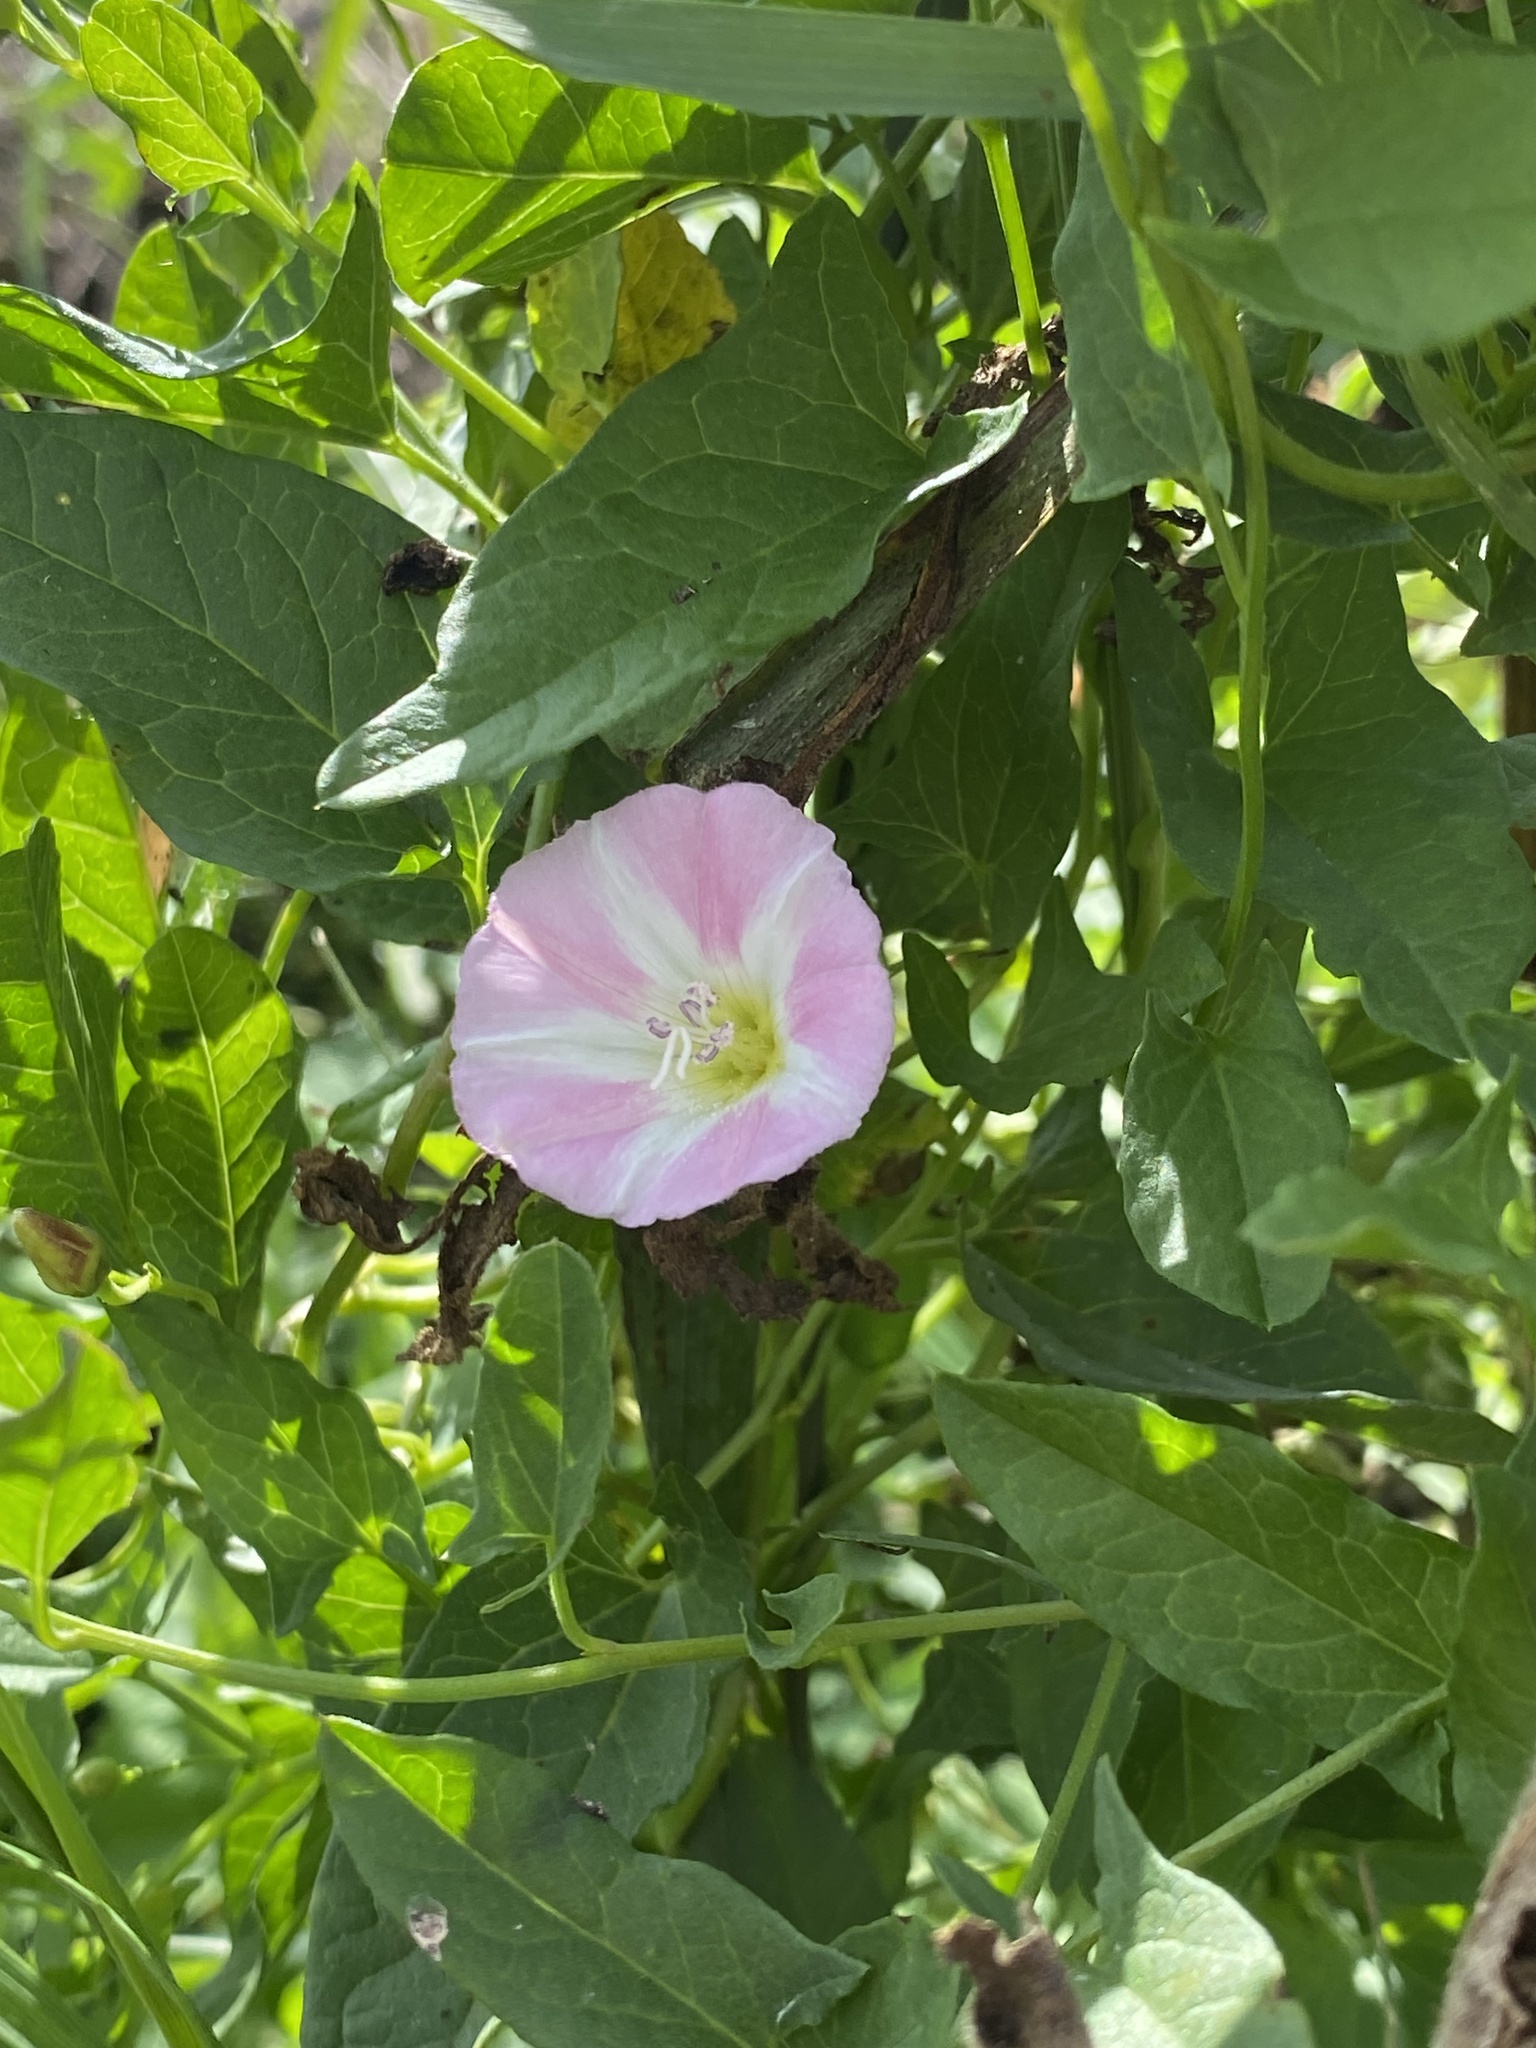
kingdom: Plantae
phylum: Tracheophyta
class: Magnoliopsida
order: Solanales
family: Convolvulaceae
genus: Convolvulus
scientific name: Convolvulus arvensis
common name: Field bindweed
